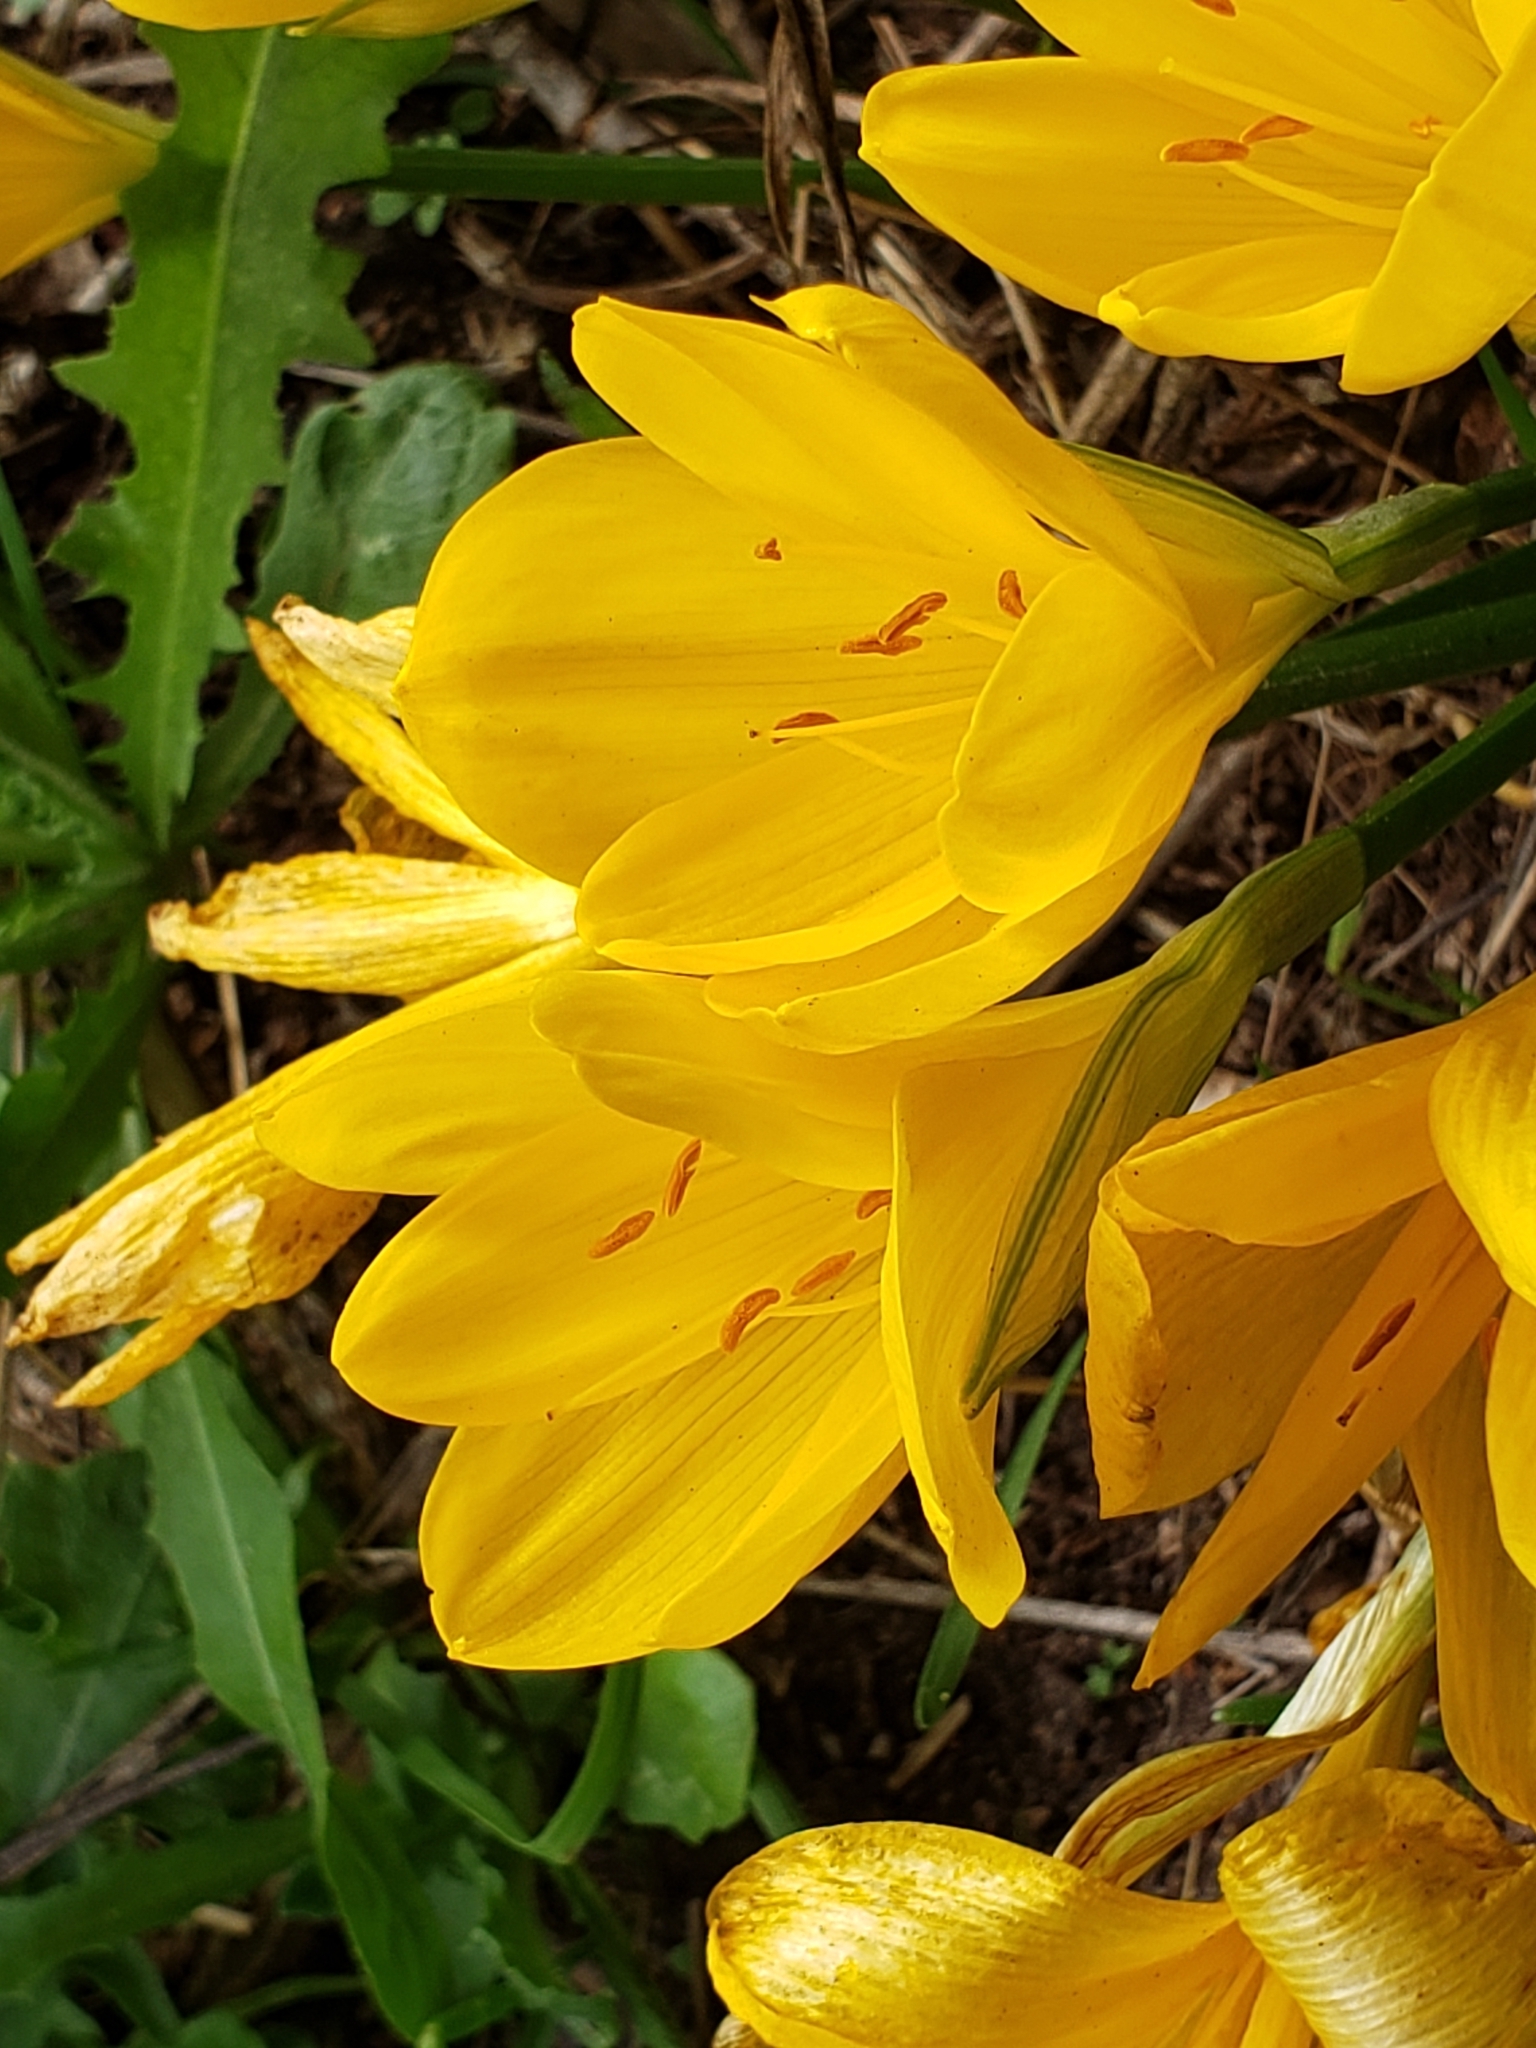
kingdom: Plantae
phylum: Tracheophyta
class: Liliopsida
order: Asparagales
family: Amaryllidaceae
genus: Sternbergia
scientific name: Sternbergia lutea
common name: Winter daffodil
